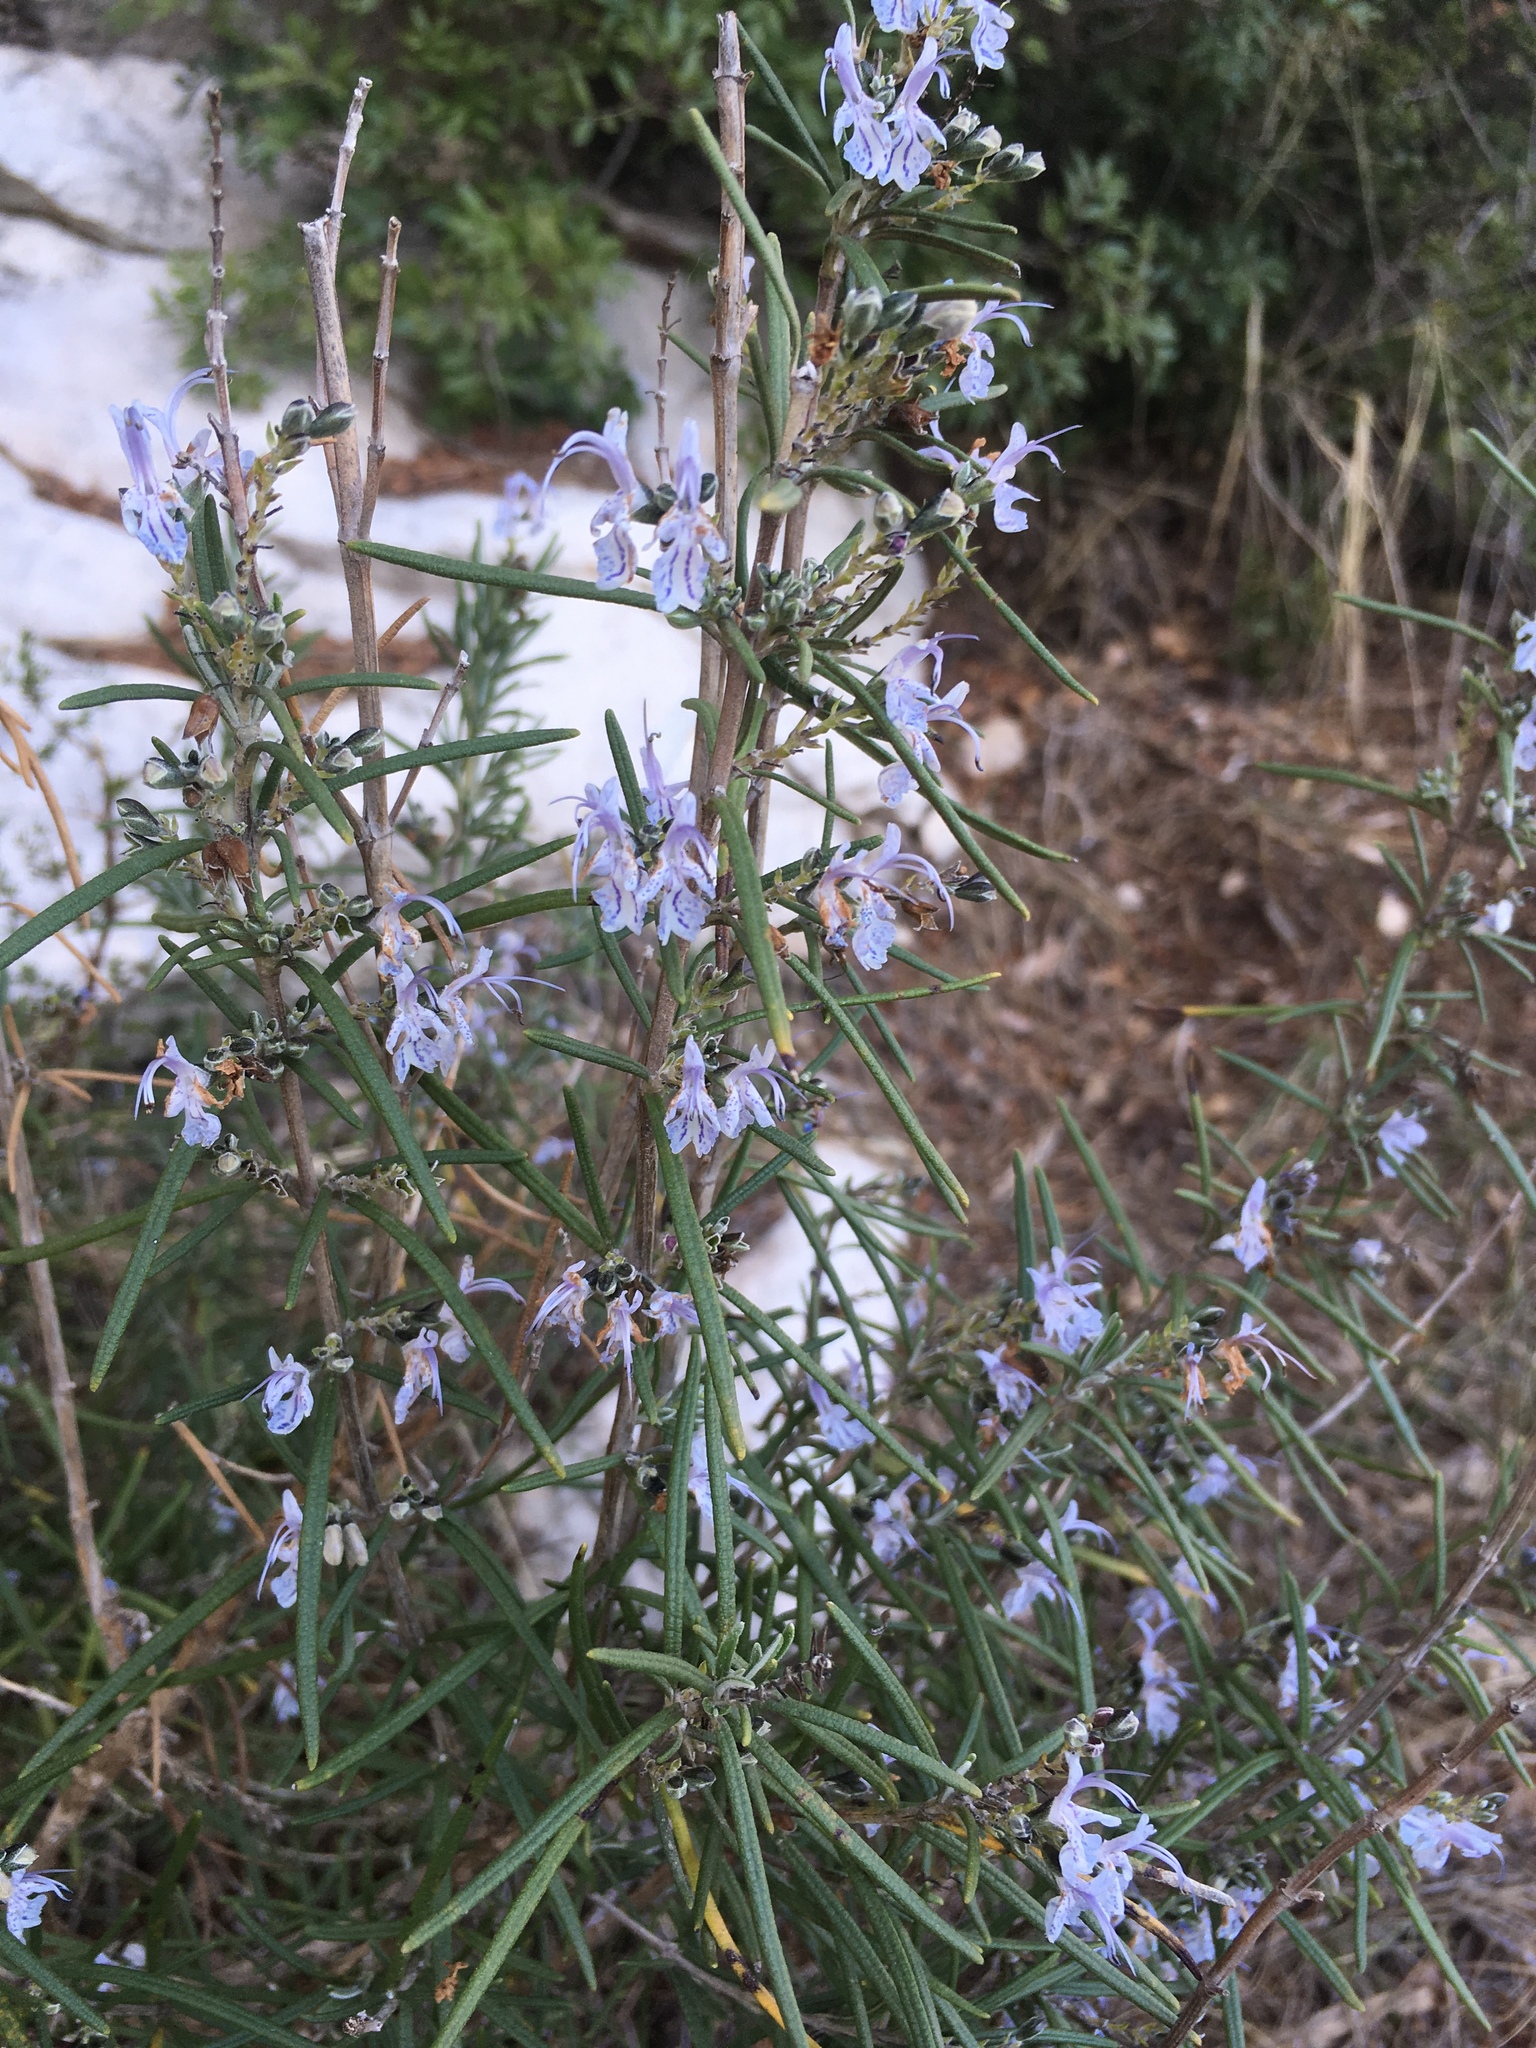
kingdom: Plantae
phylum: Tracheophyta
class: Magnoliopsida
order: Lamiales
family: Lamiaceae
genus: Salvia
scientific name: Salvia rosmarinus
